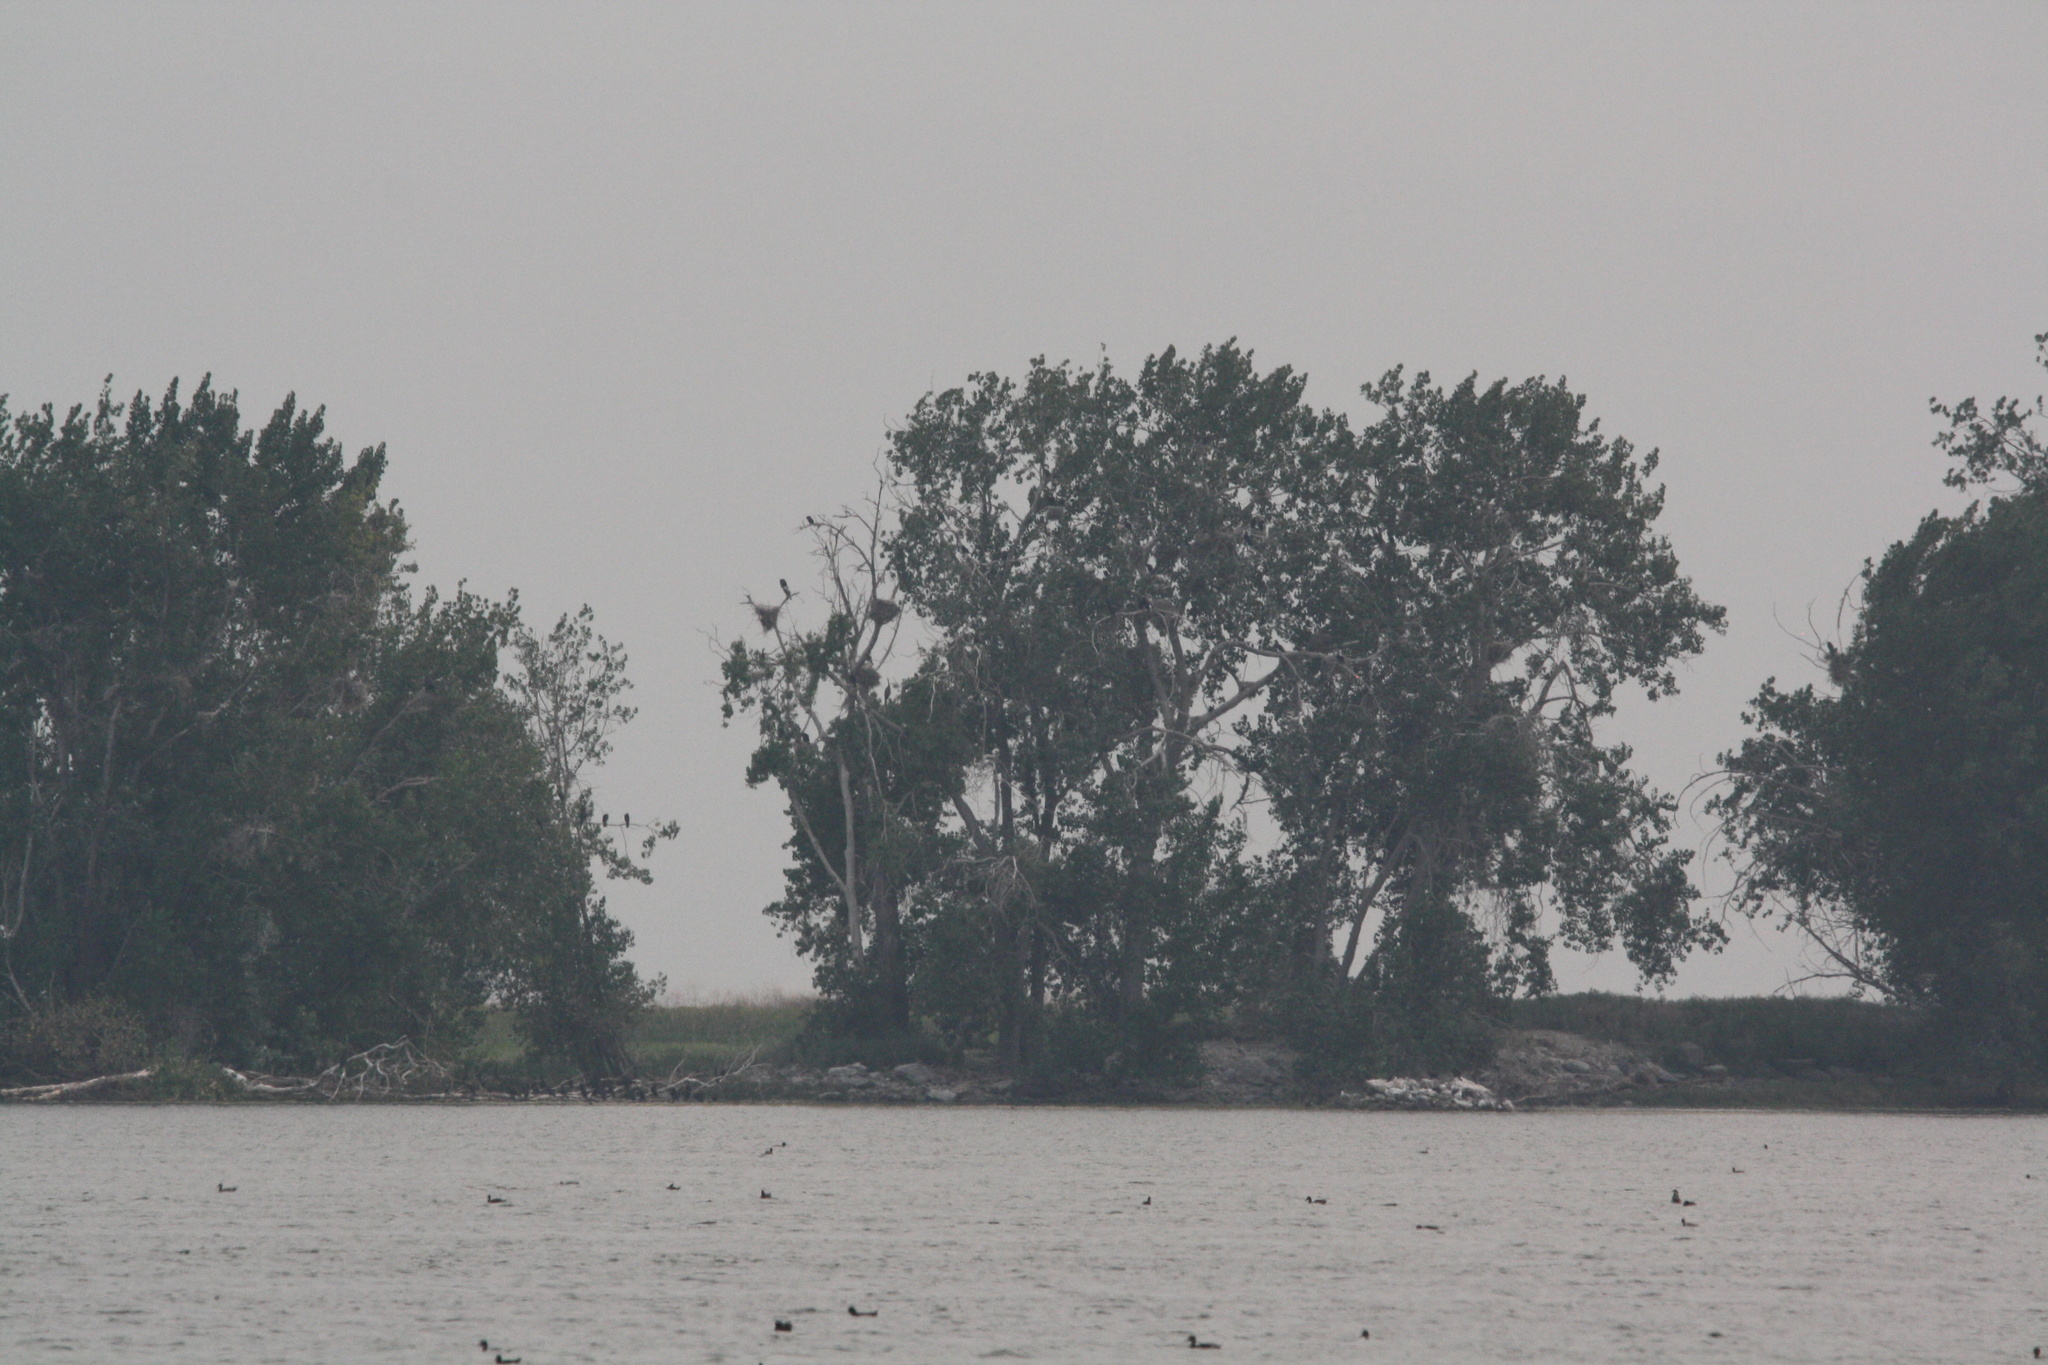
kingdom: Animalia
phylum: Chordata
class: Aves
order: Pelecaniformes
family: Ardeidae
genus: Ardea
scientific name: Ardea herodias
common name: Great blue heron
